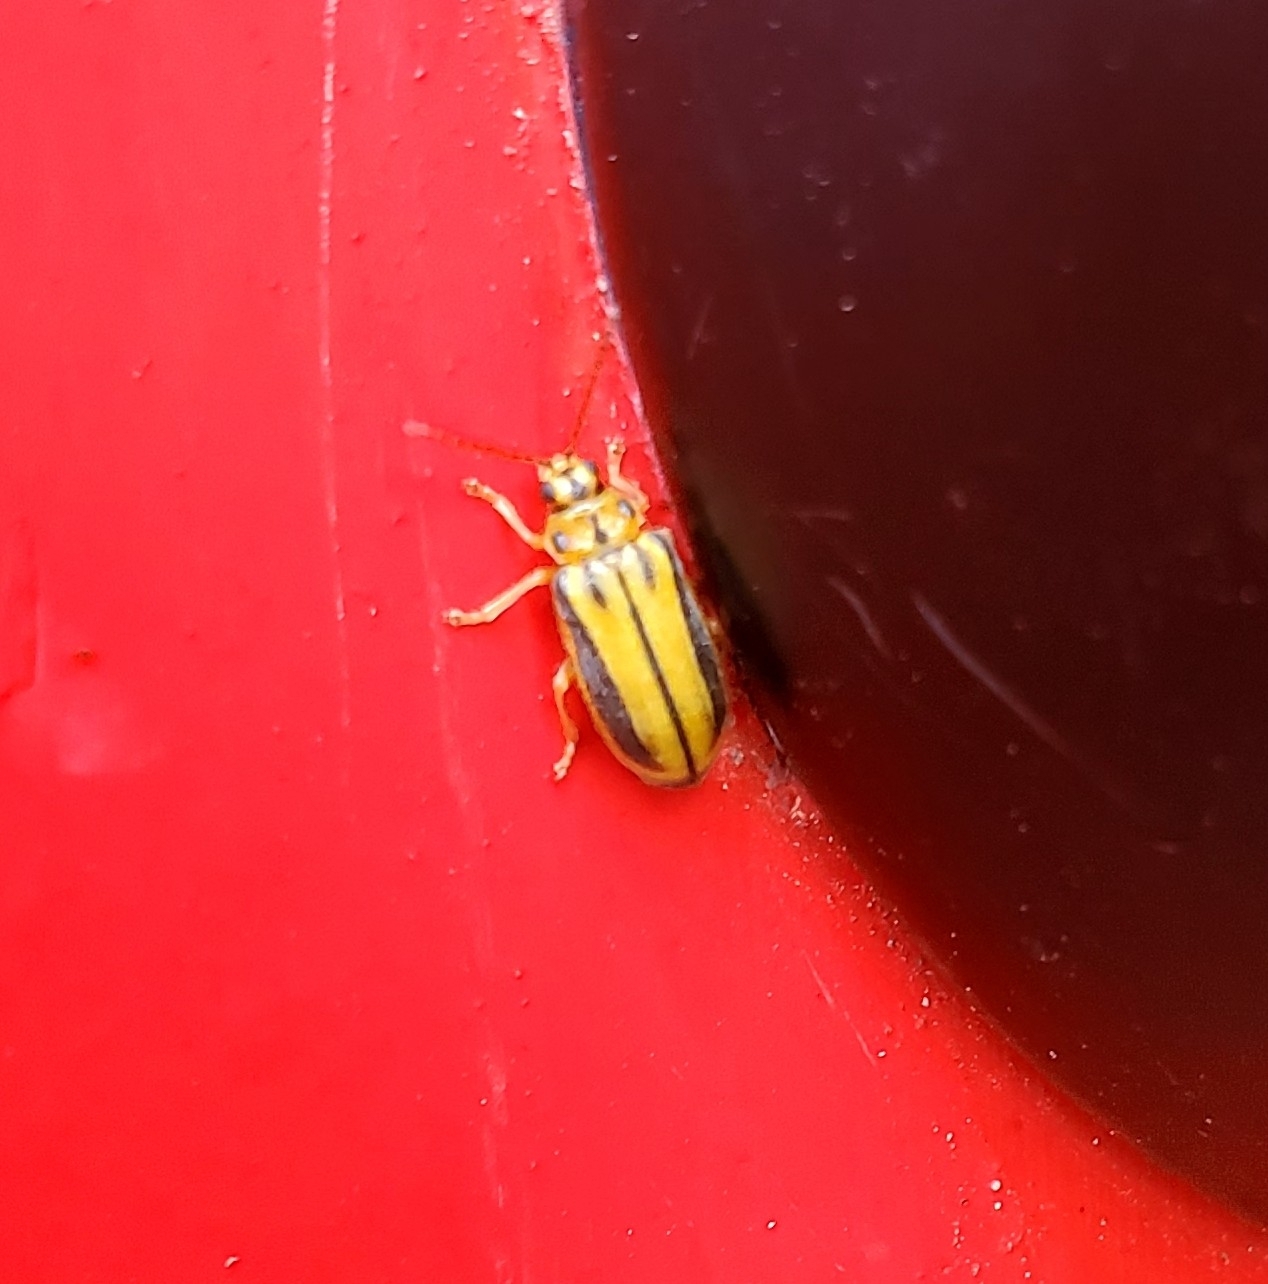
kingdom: Animalia
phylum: Arthropoda
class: Insecta
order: Coleoptera
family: Chrysomelidae
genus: Xanthogaleruca
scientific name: Xanthogaleruca luteola
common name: Elm leaf beetle
